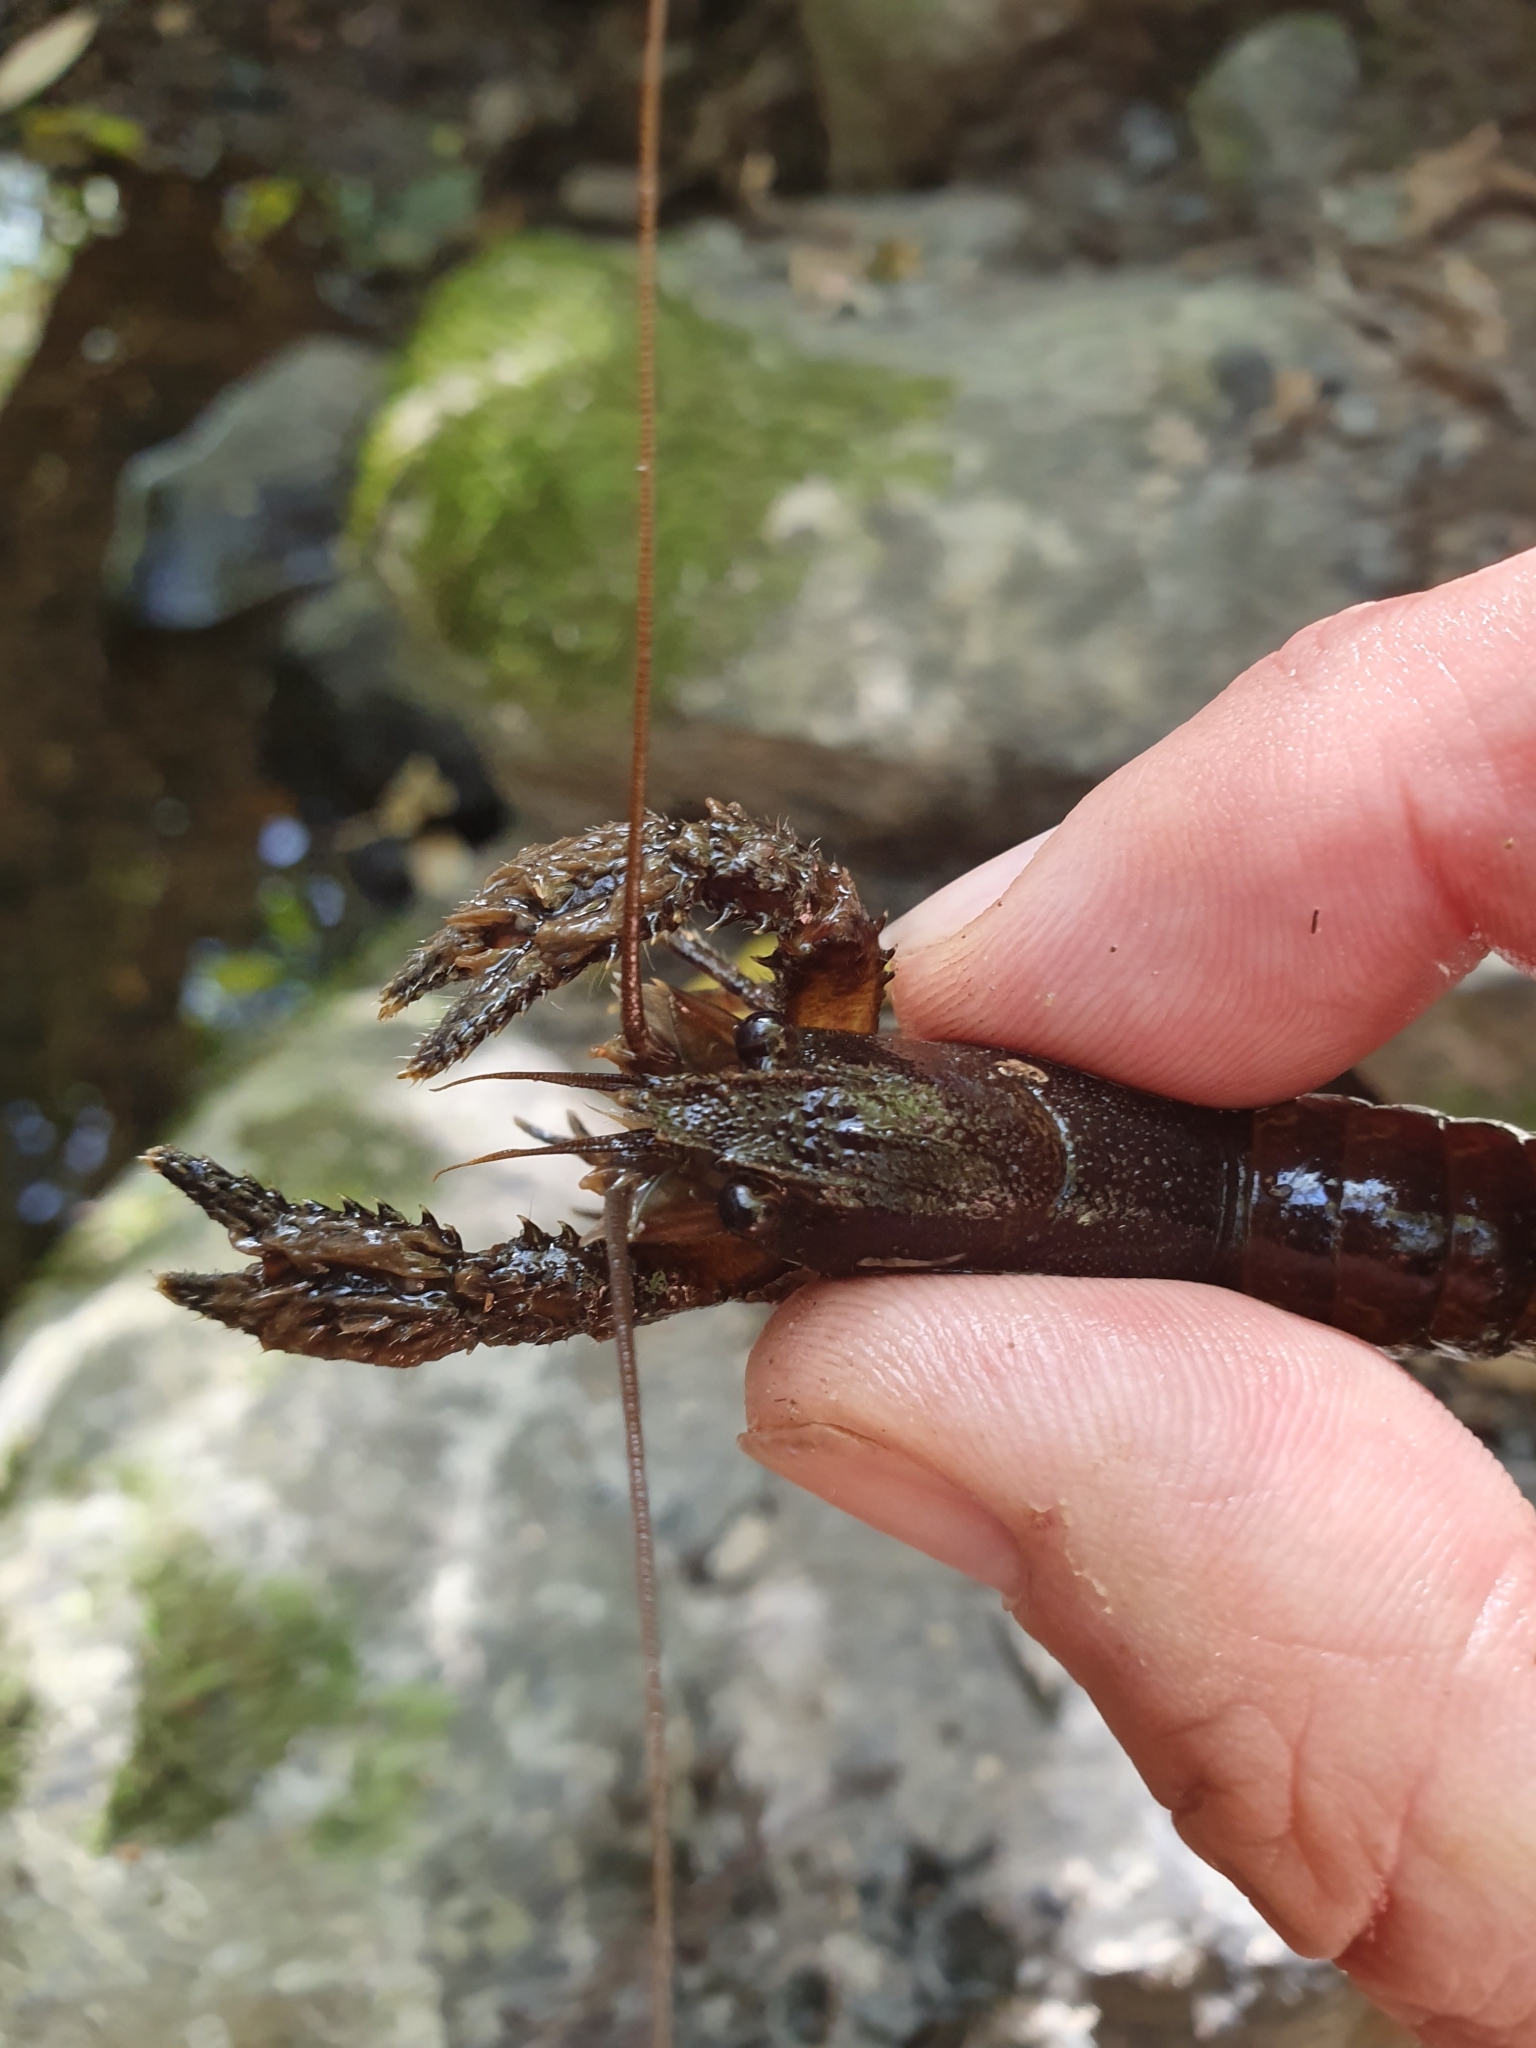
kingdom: Animalia
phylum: Arthropoda
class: Malacostraca
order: Decapoda
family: Parastacidae
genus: Paranephrops
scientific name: Paranephrops zealandicus
